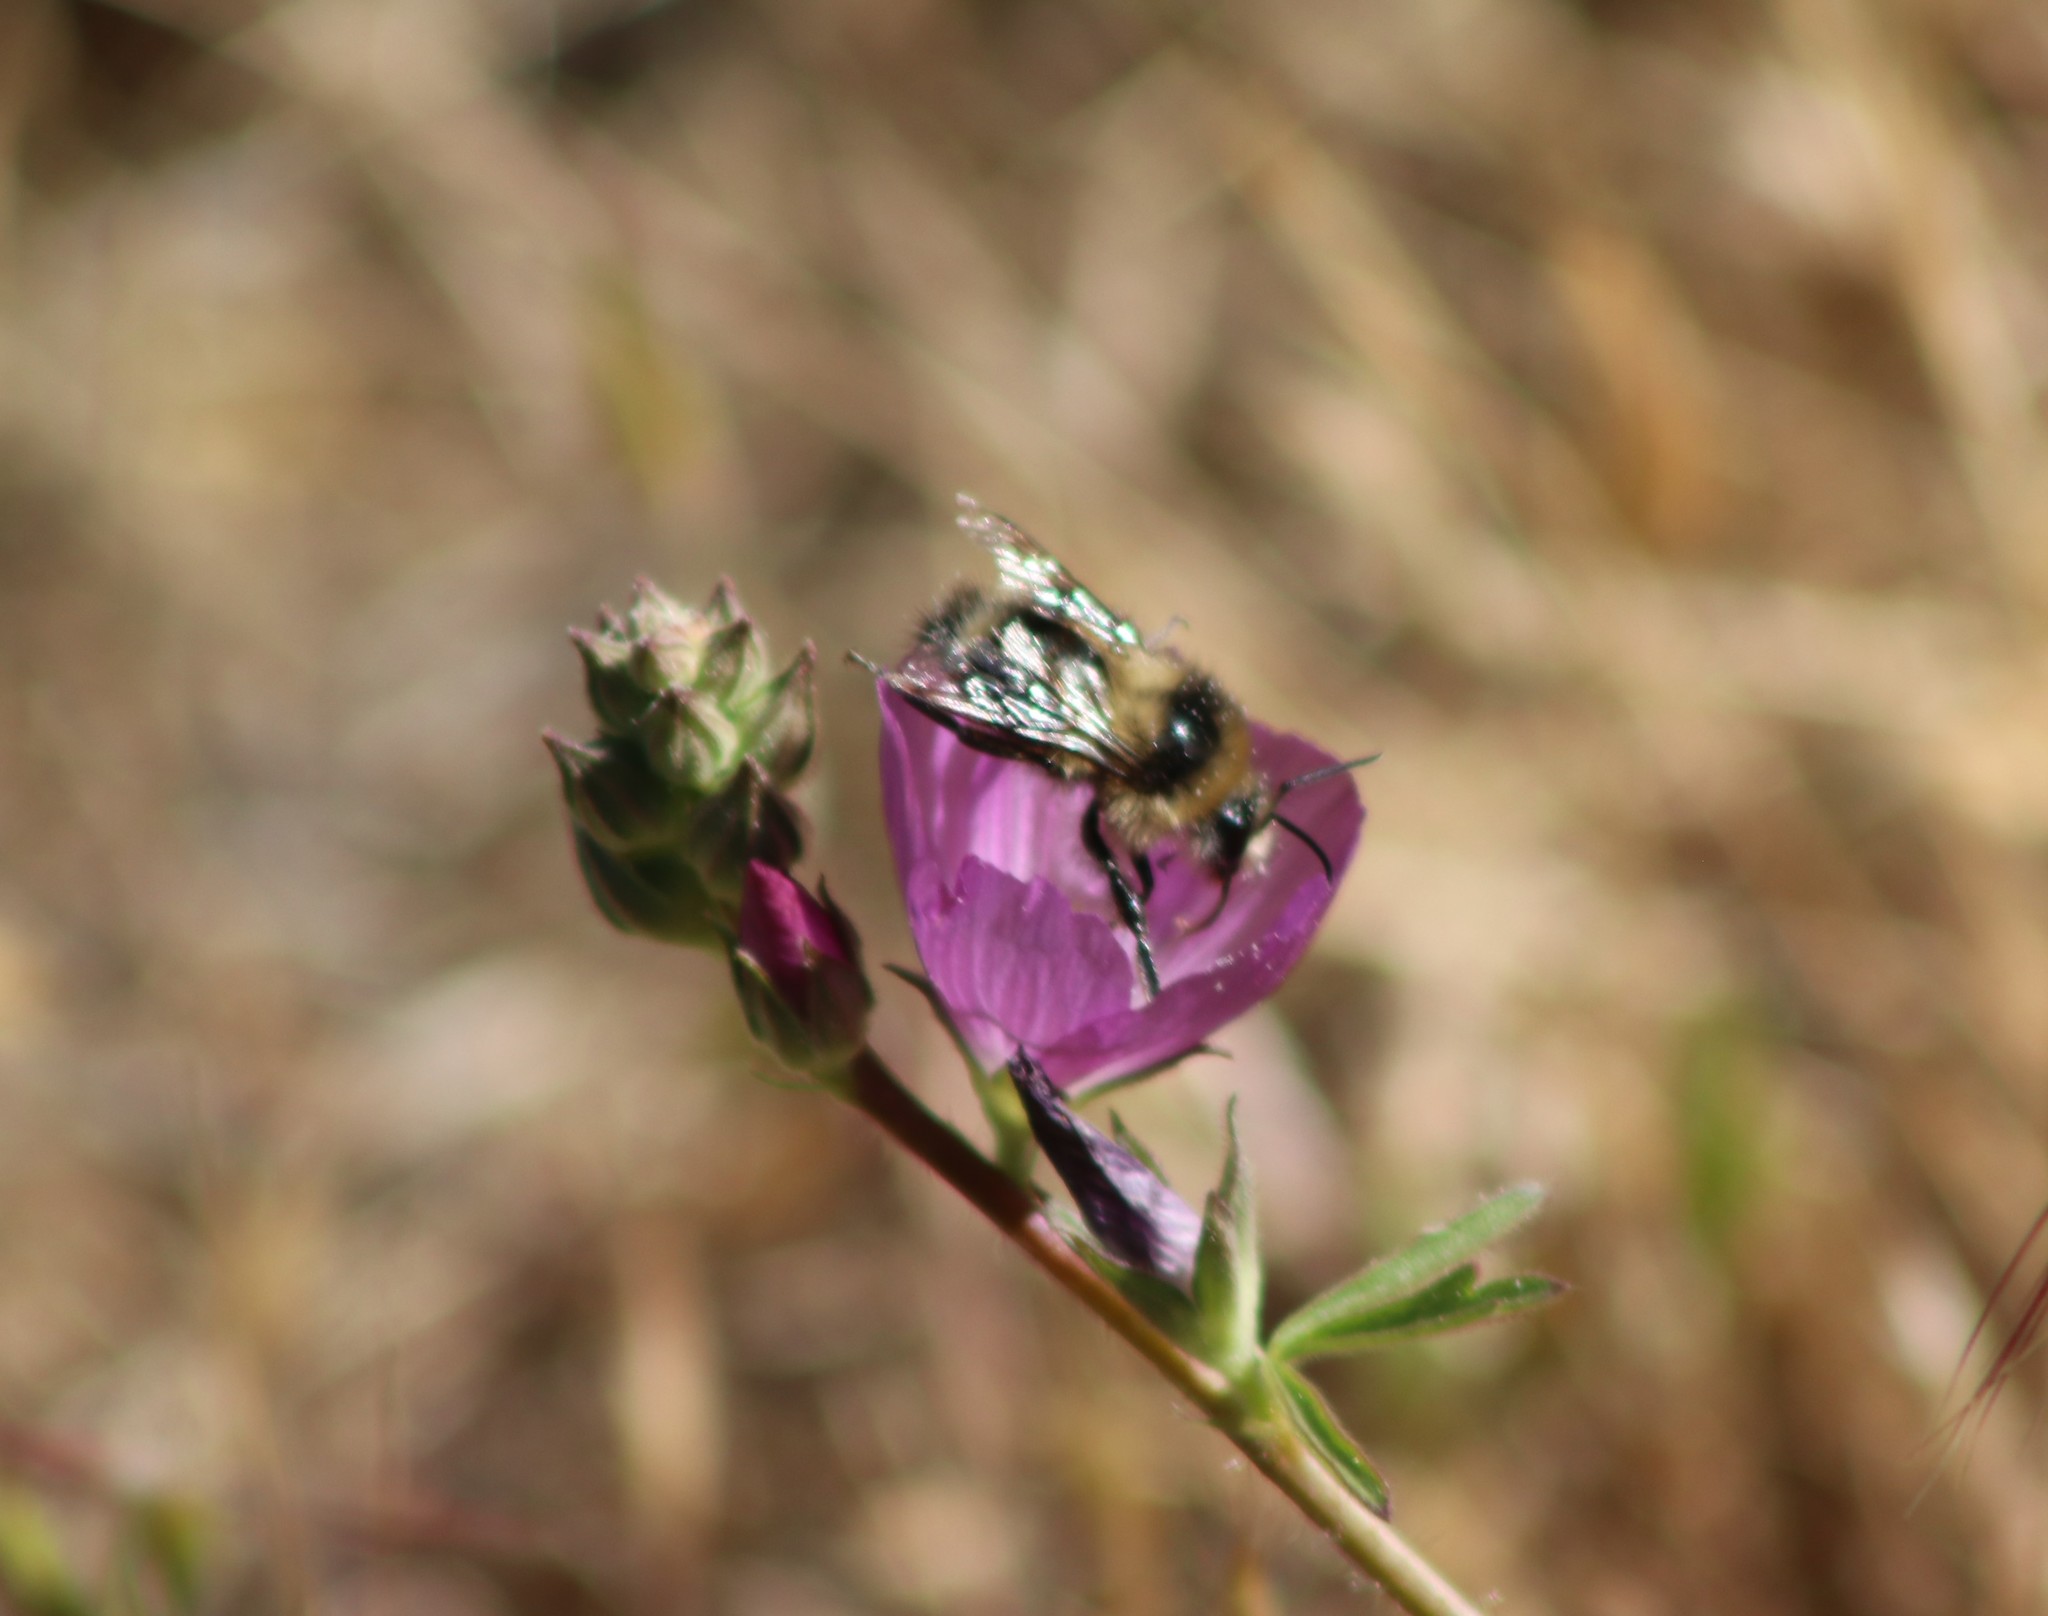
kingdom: Animalia
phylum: Arthropoda
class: Insecta
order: Hymenoptera
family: Apidae
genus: Bombus
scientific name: Bombus melanopygus
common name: Black tail bumble bee
